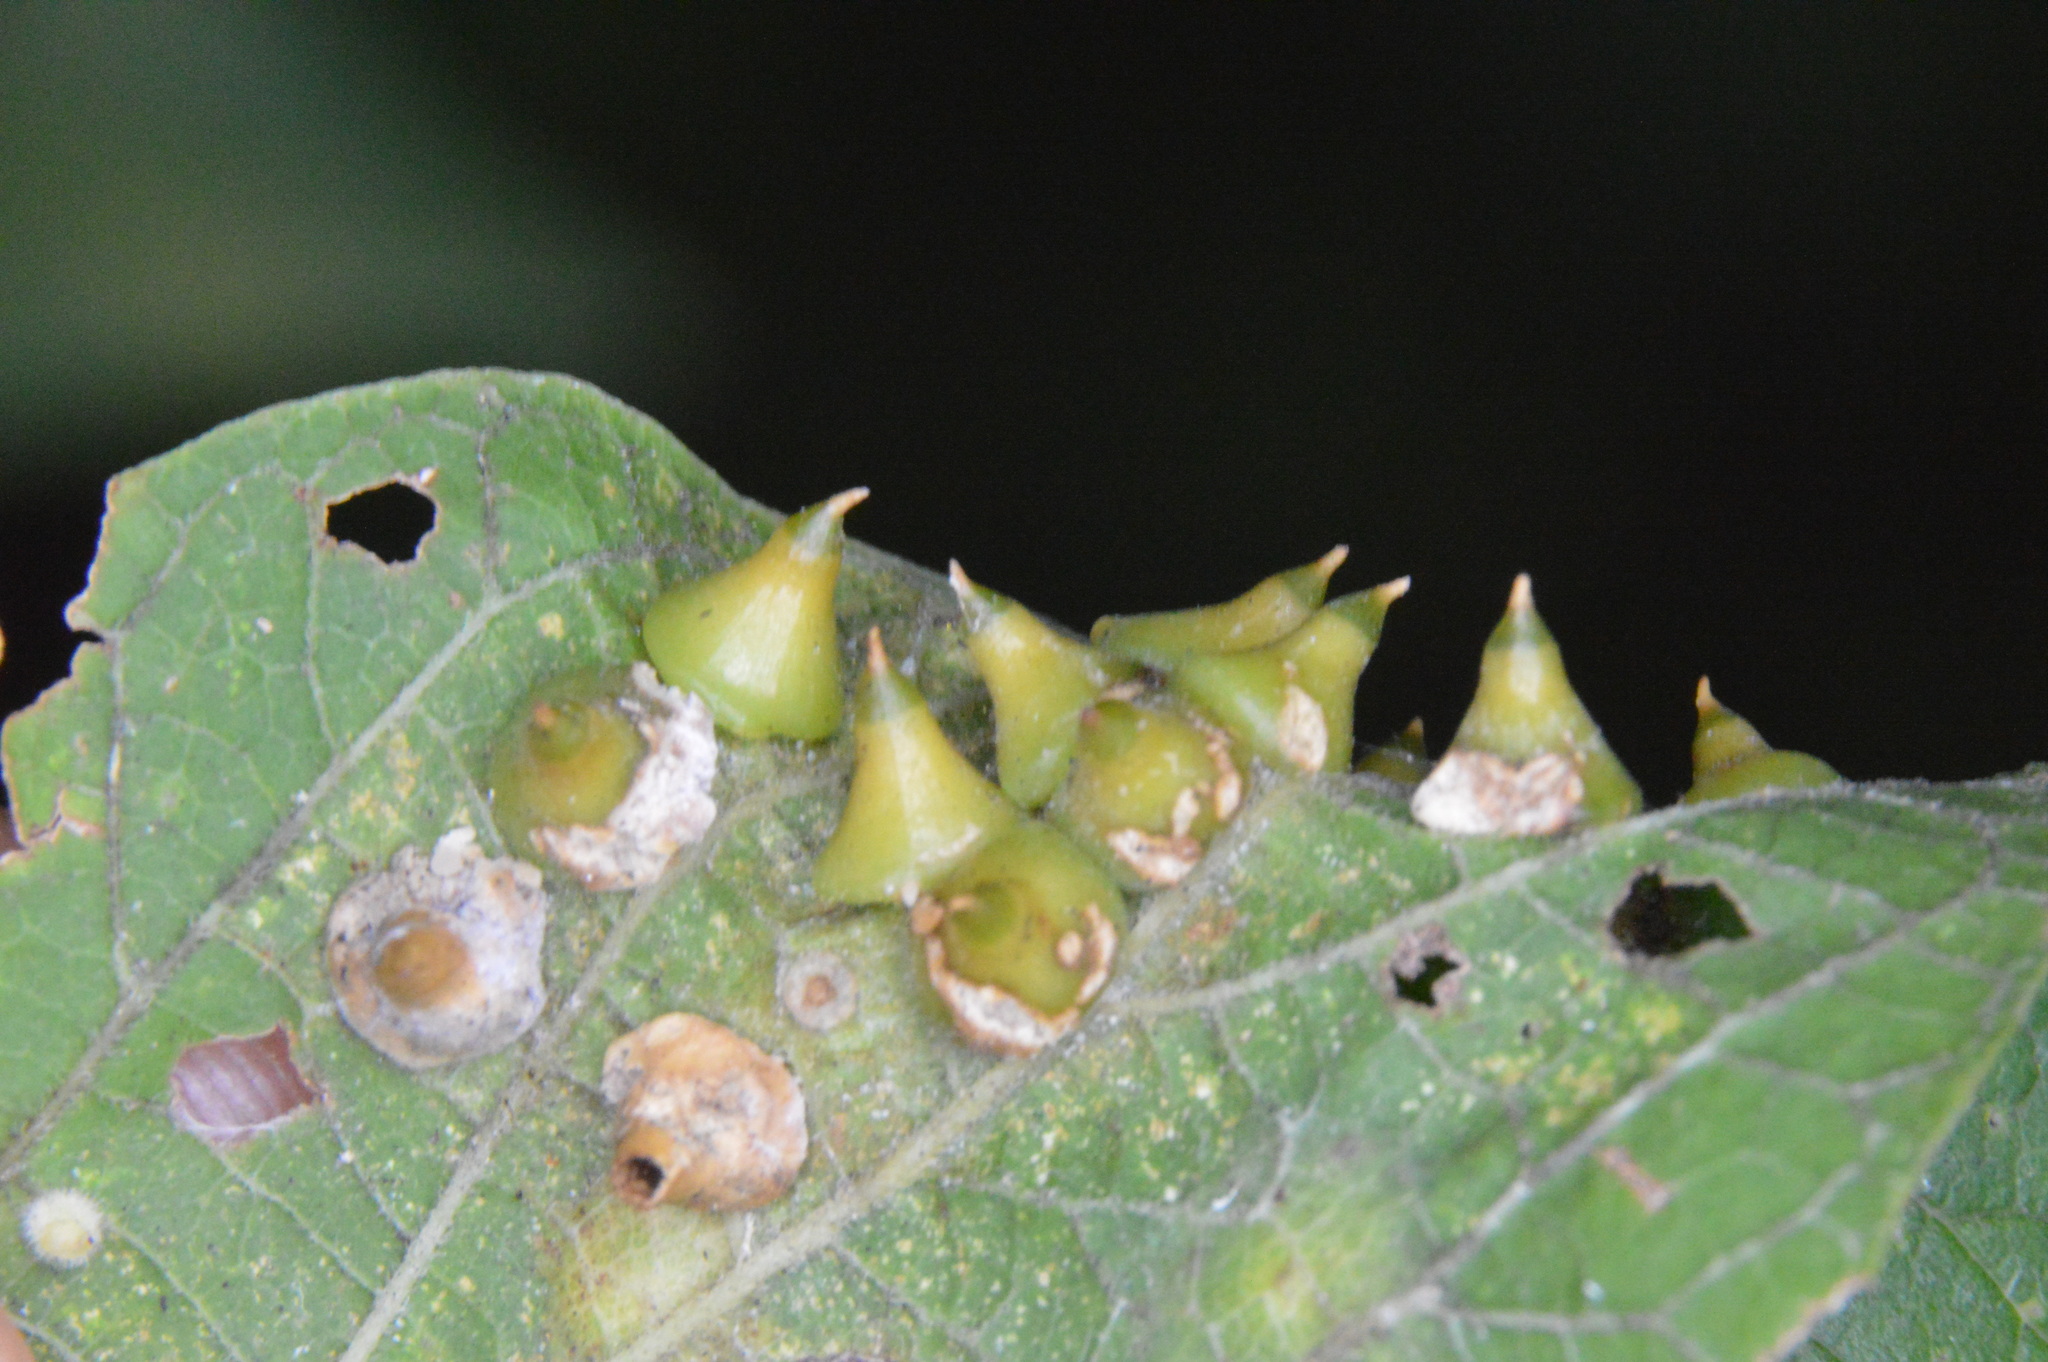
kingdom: Animalia
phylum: Arthropoda
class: Insecta
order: Diptera
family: Cecidomyiidae
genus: Celticecis
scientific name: Celticecis spiniformis
